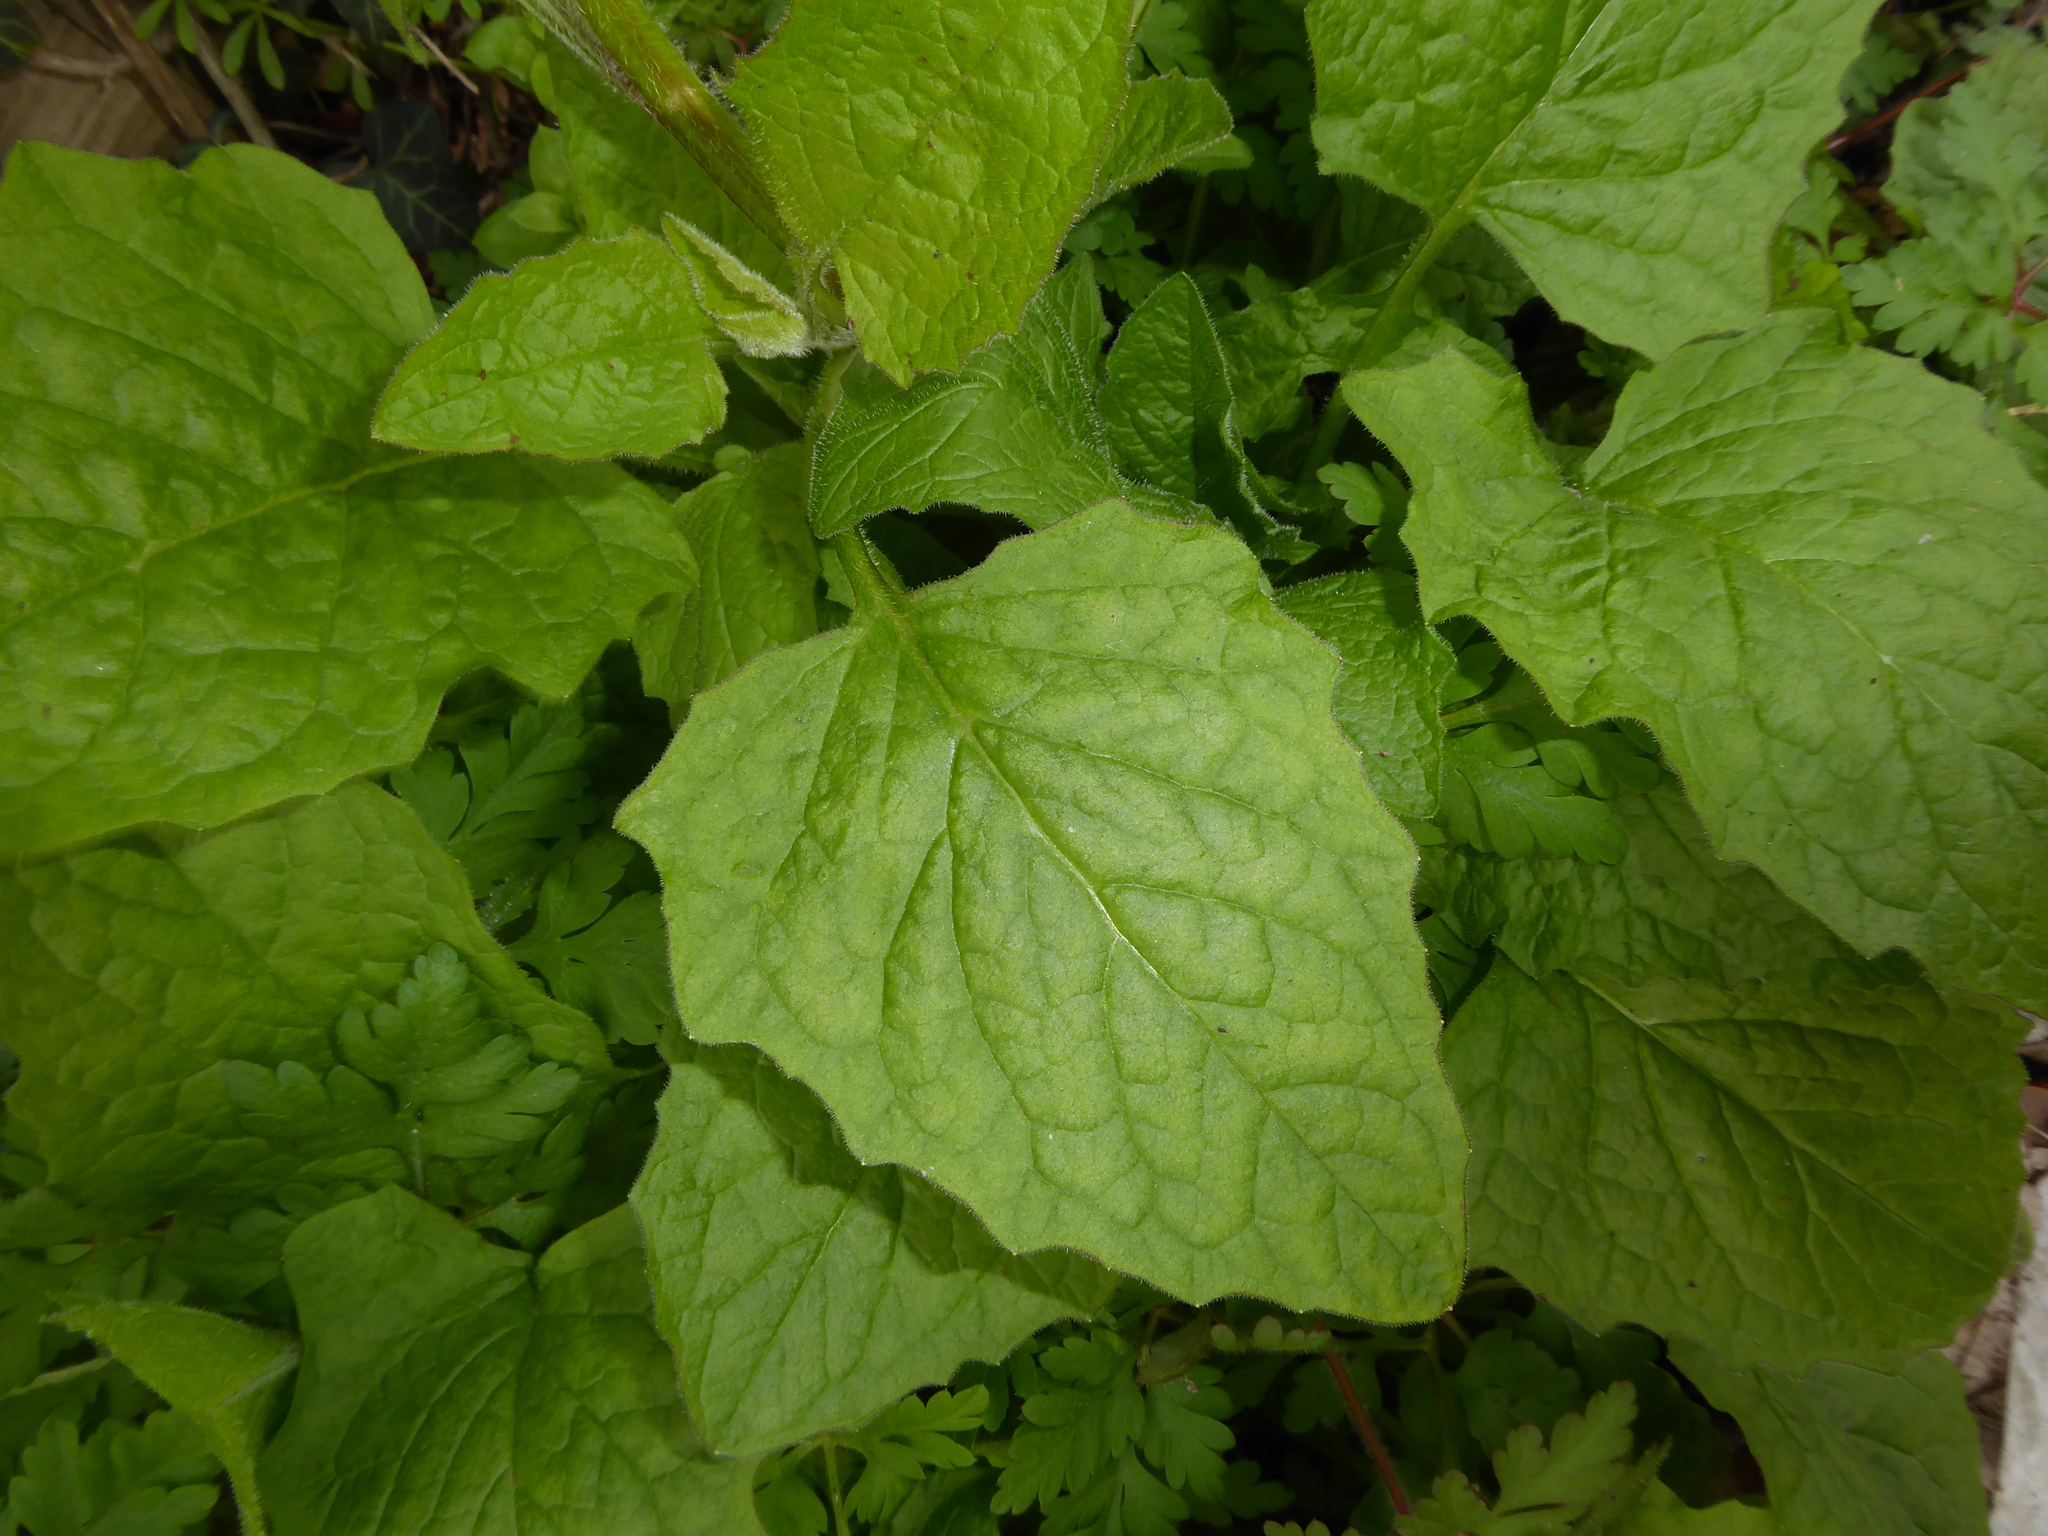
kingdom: Plantae
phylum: Tracheophyta
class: Magnoliopsida
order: Asterales
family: Asteraceae
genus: Lapsana
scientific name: Lapsana communis
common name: Nipplewort
